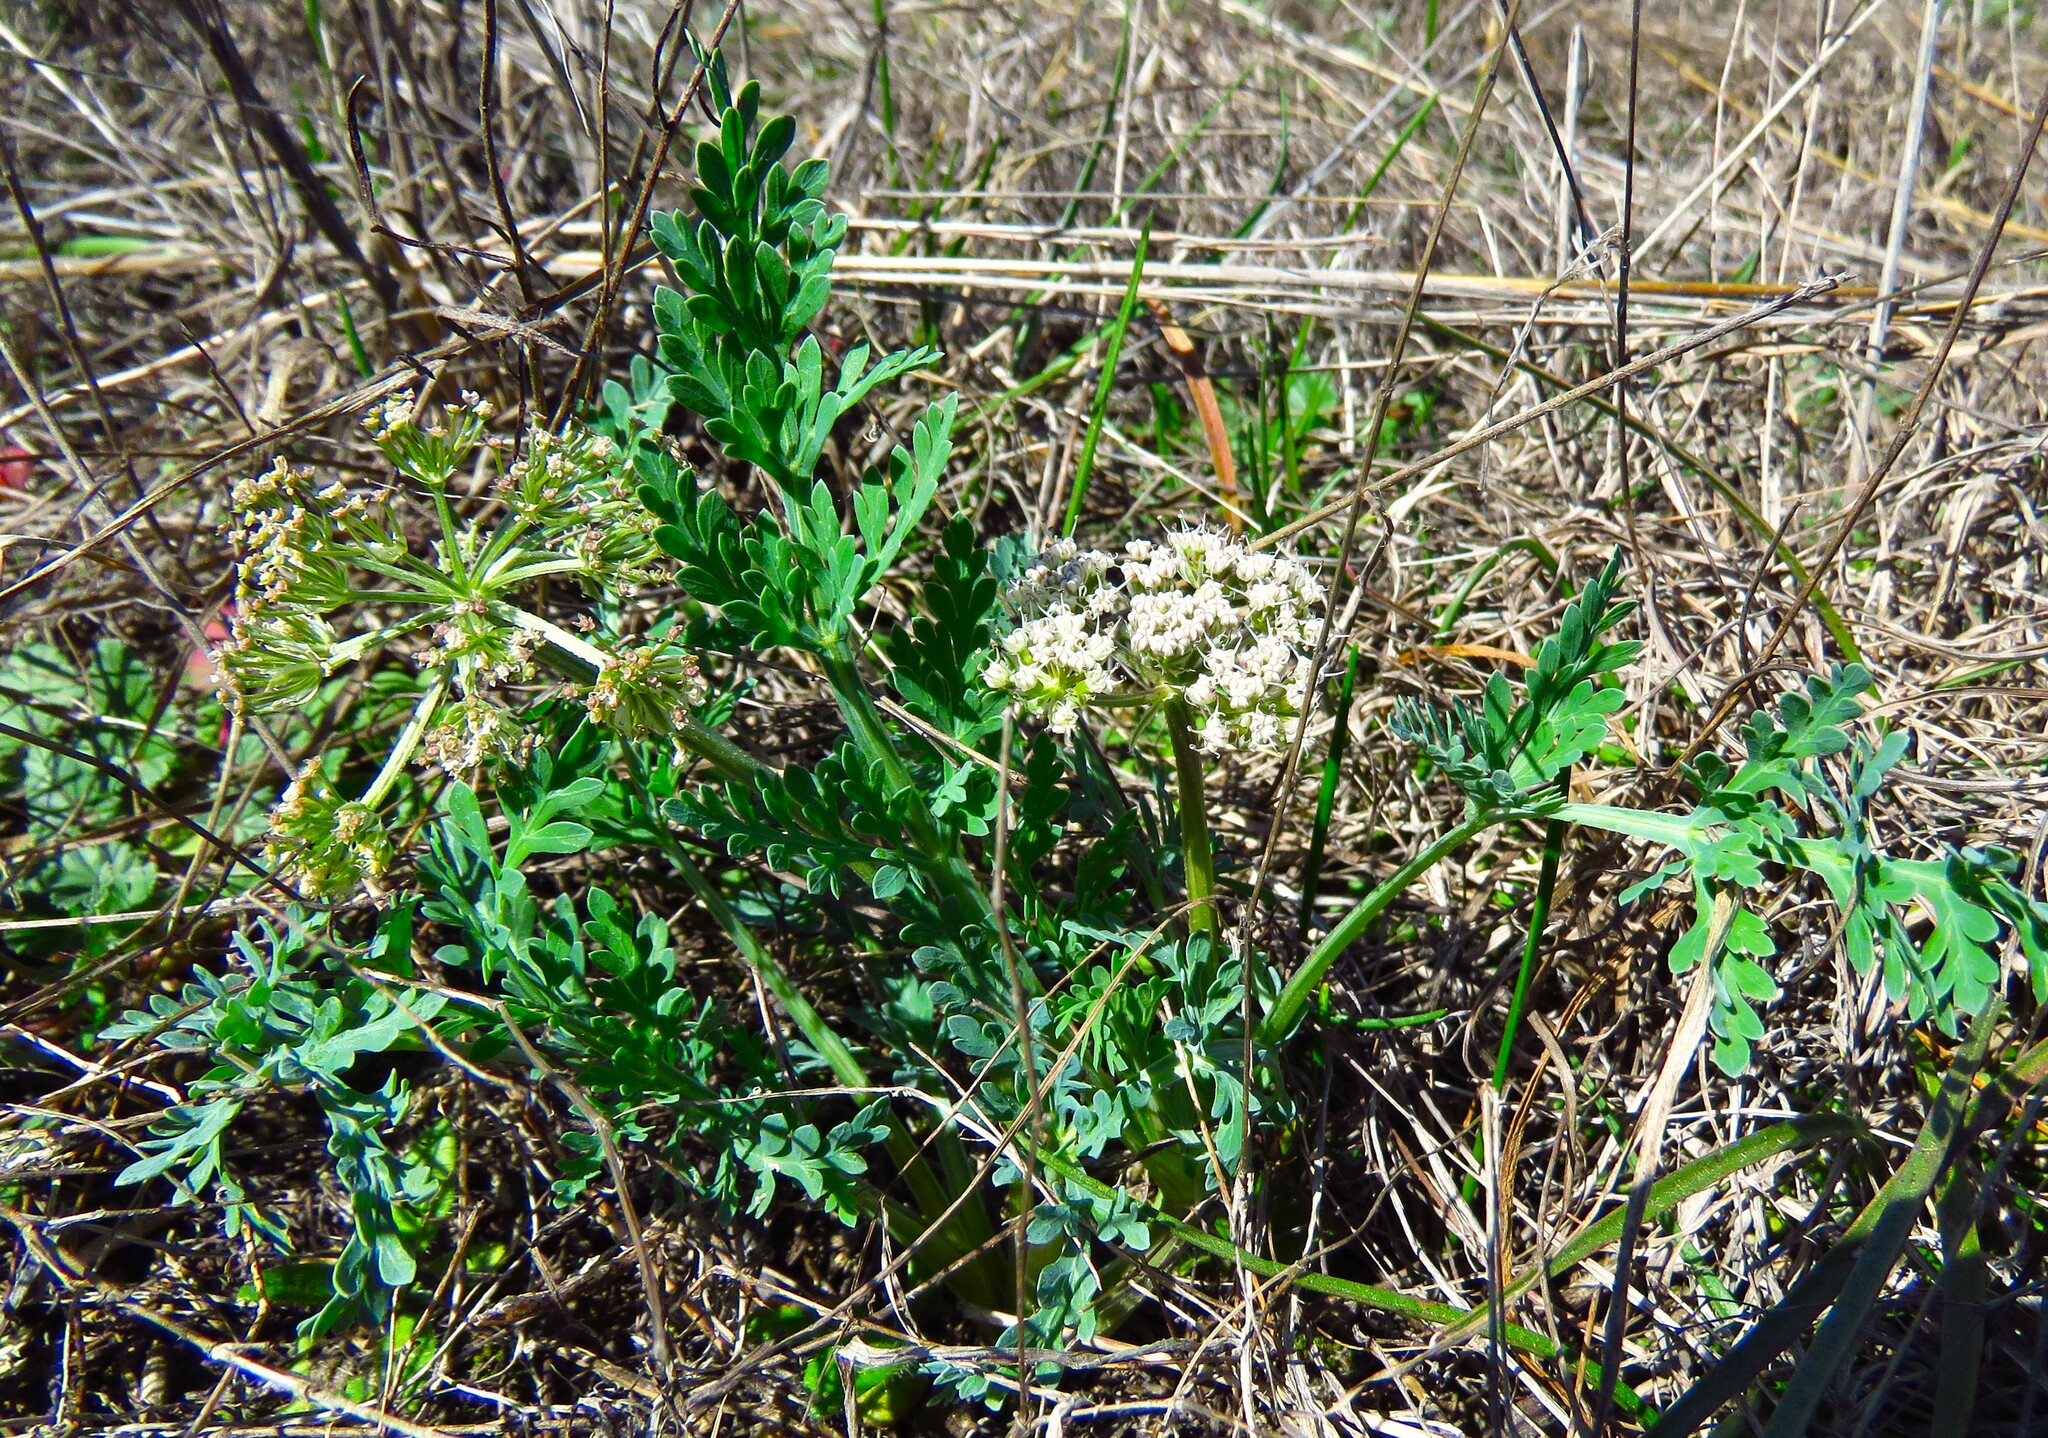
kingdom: Plantae
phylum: Tracheophyta
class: Magnoliopsida
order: Apiales
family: Apiaceae
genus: Vesper
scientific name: Vesper macrorhizus
